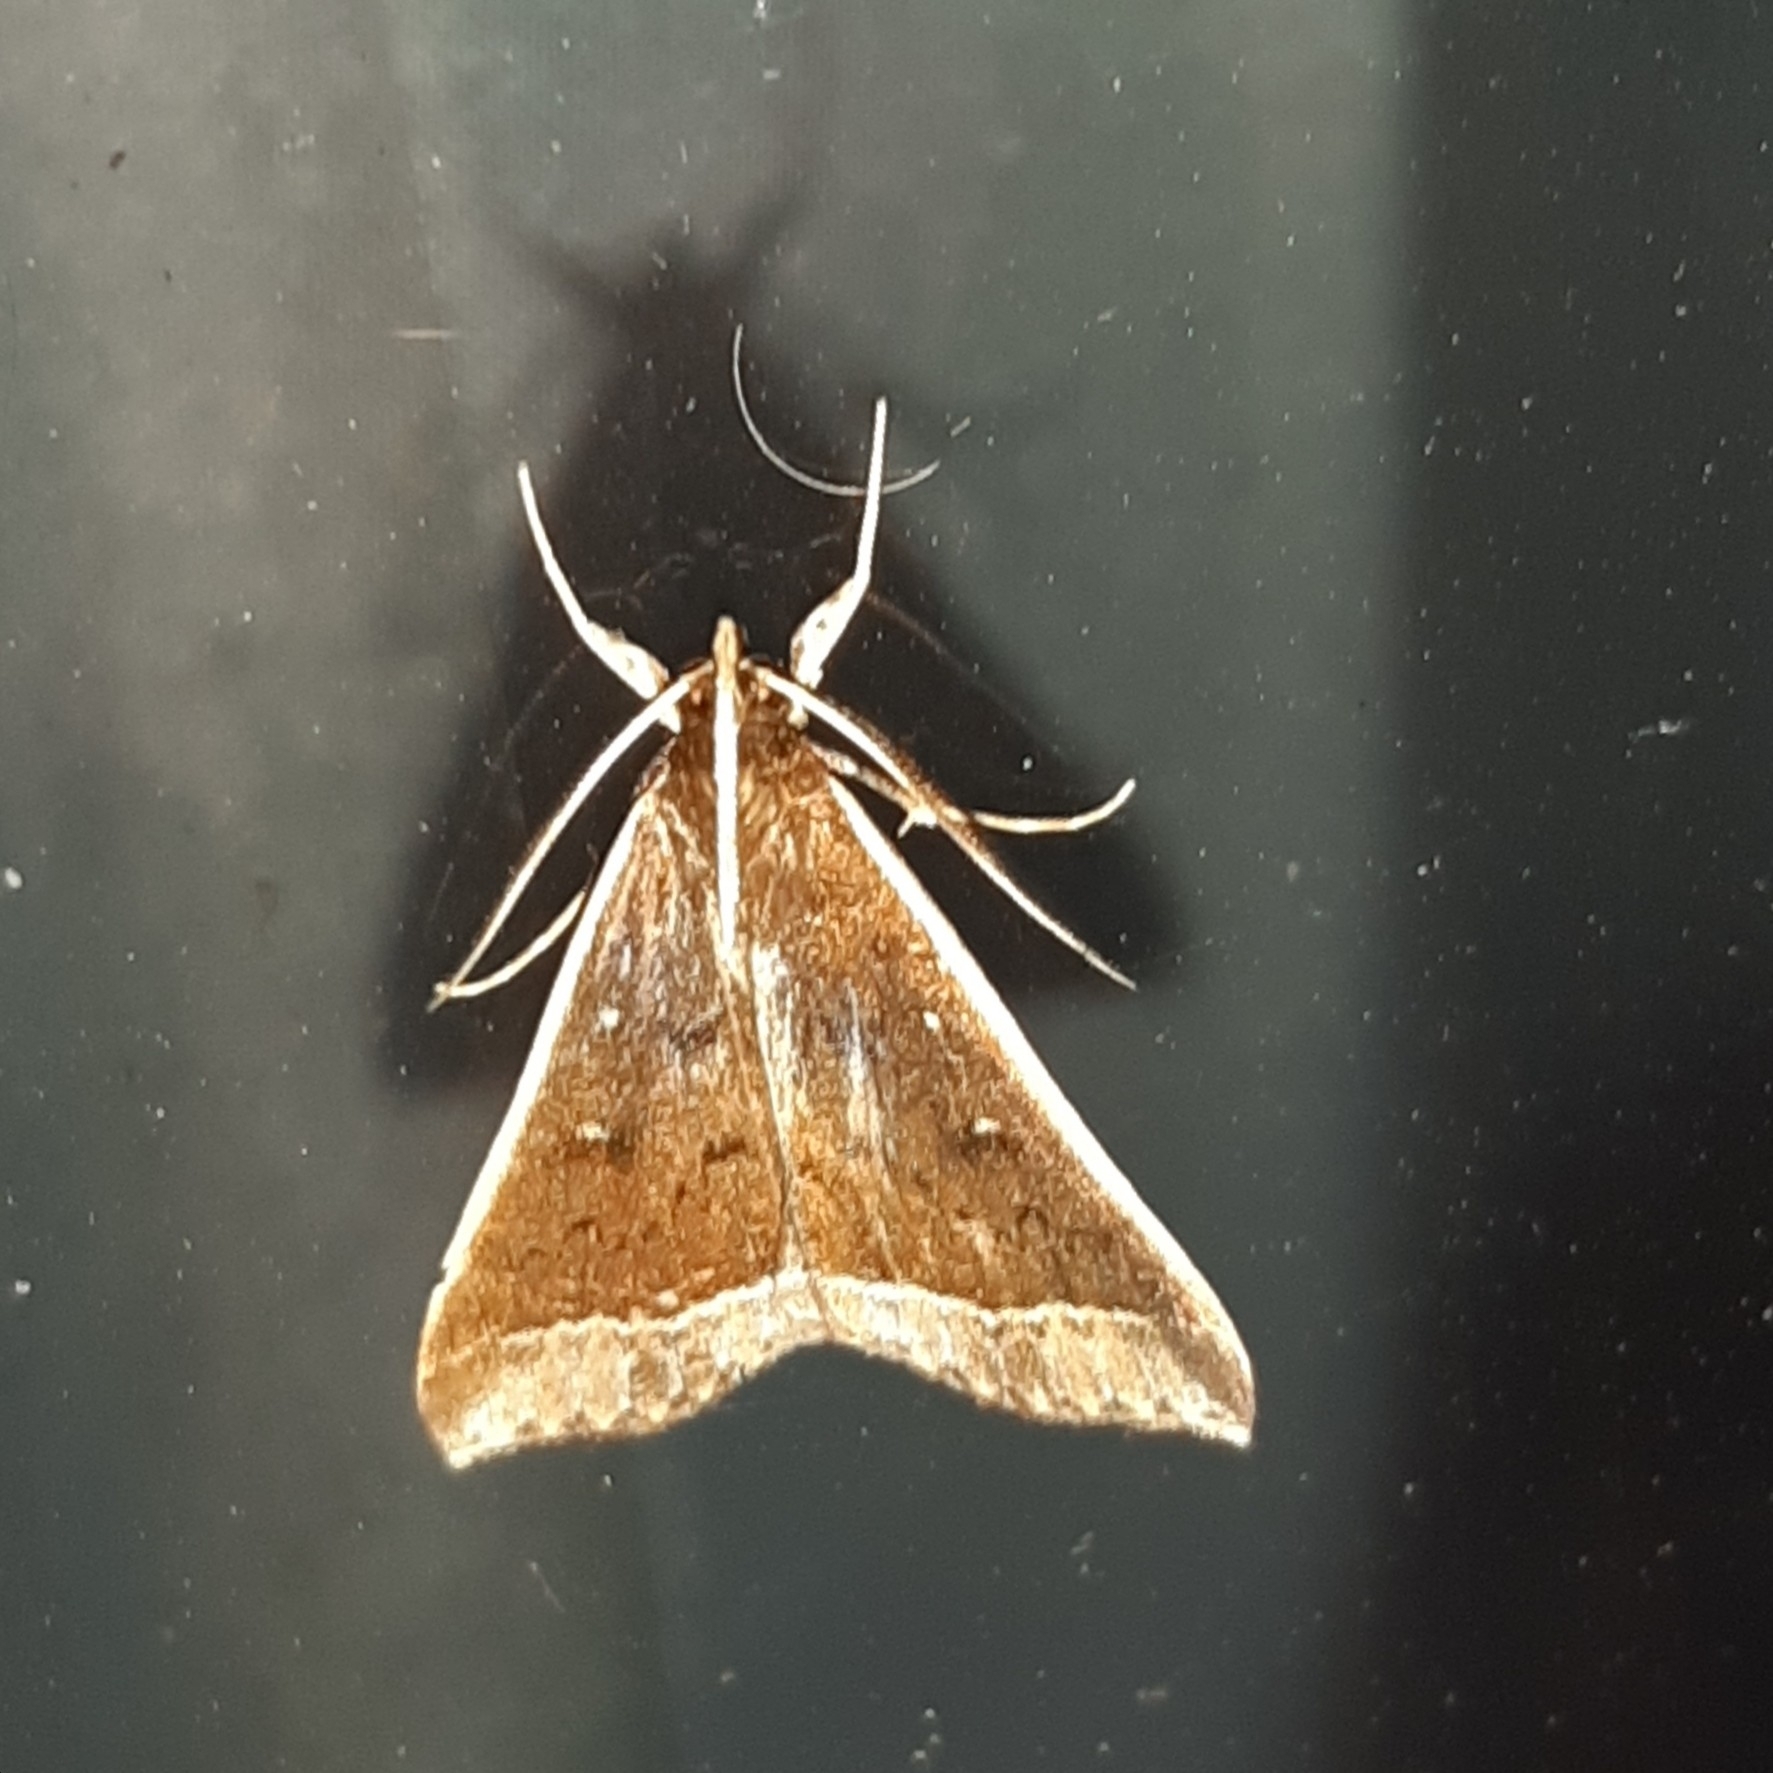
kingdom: Animalia
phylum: Arthropoda
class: Insecta
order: Lepidoptera
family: Erebidae
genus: Mastixis
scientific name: Mastixis albilimbata
